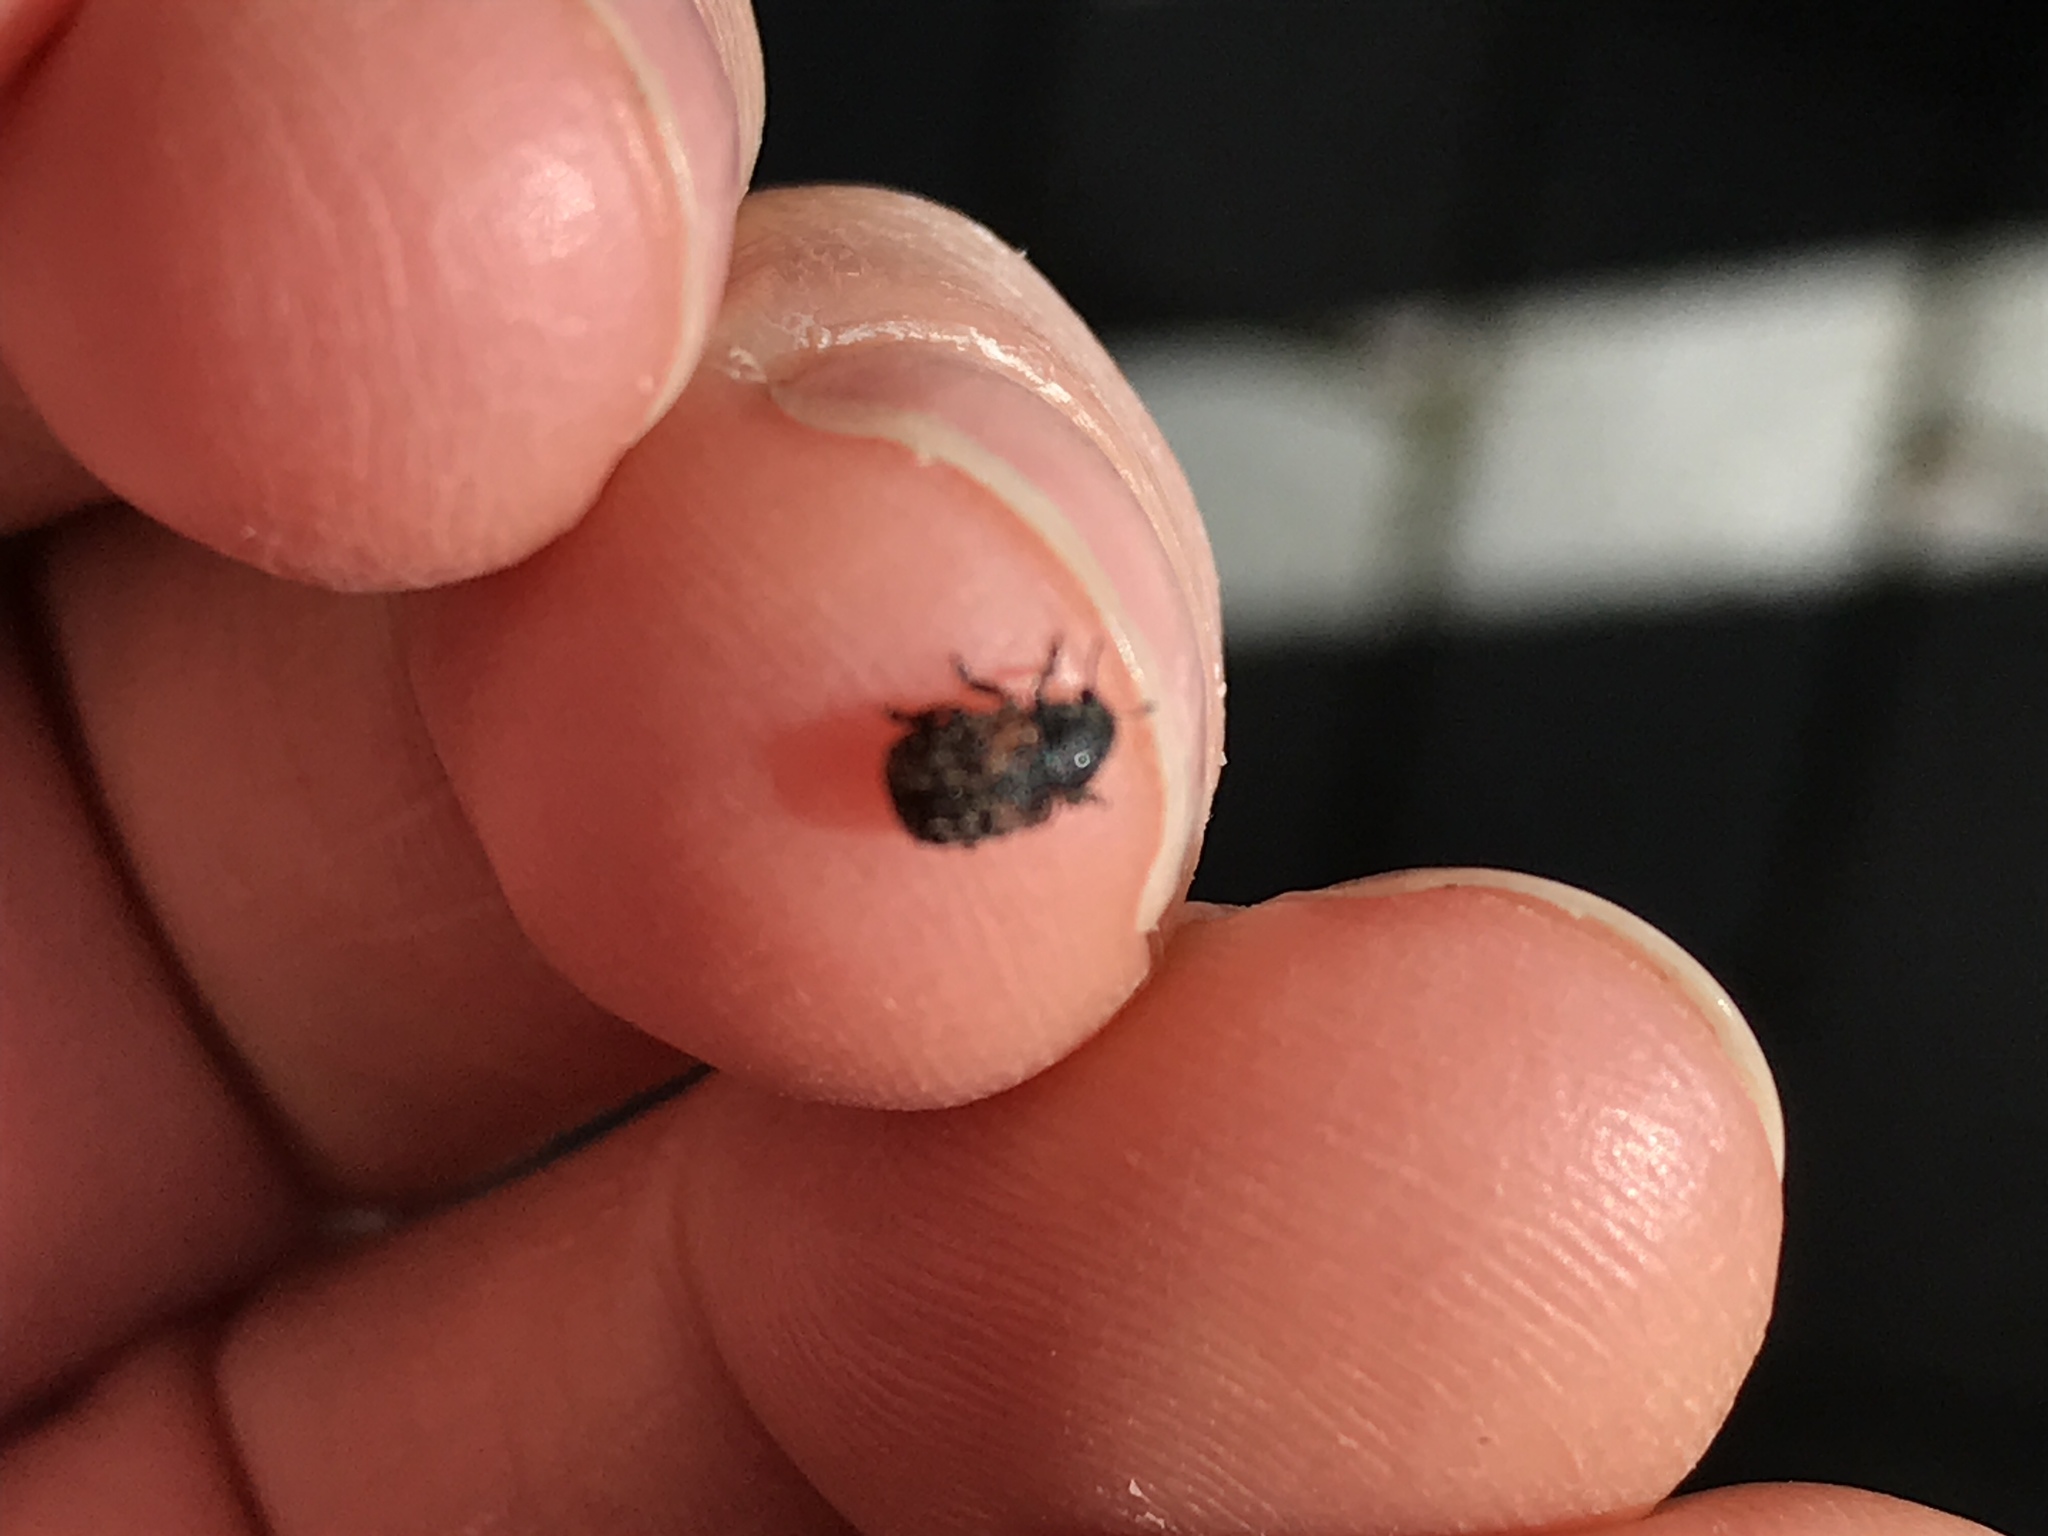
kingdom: Animalia
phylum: Arthropoda
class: Insecta
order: Coleoptera
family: Anthribidae
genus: Anthribus
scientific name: Anthribus fasciatus
